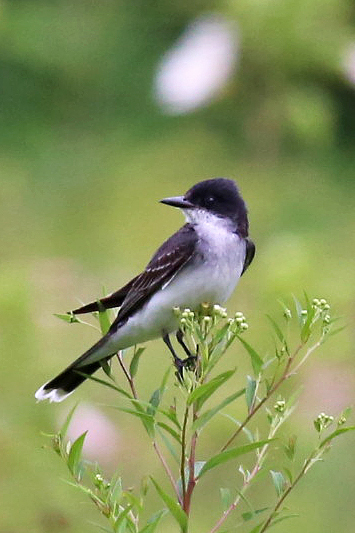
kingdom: Animalia
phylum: Chordata
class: Aves
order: Passeriformes
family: Tyrannidae
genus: Tyrannus
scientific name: Tyrannus tyrannus
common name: Eastern kingbird
